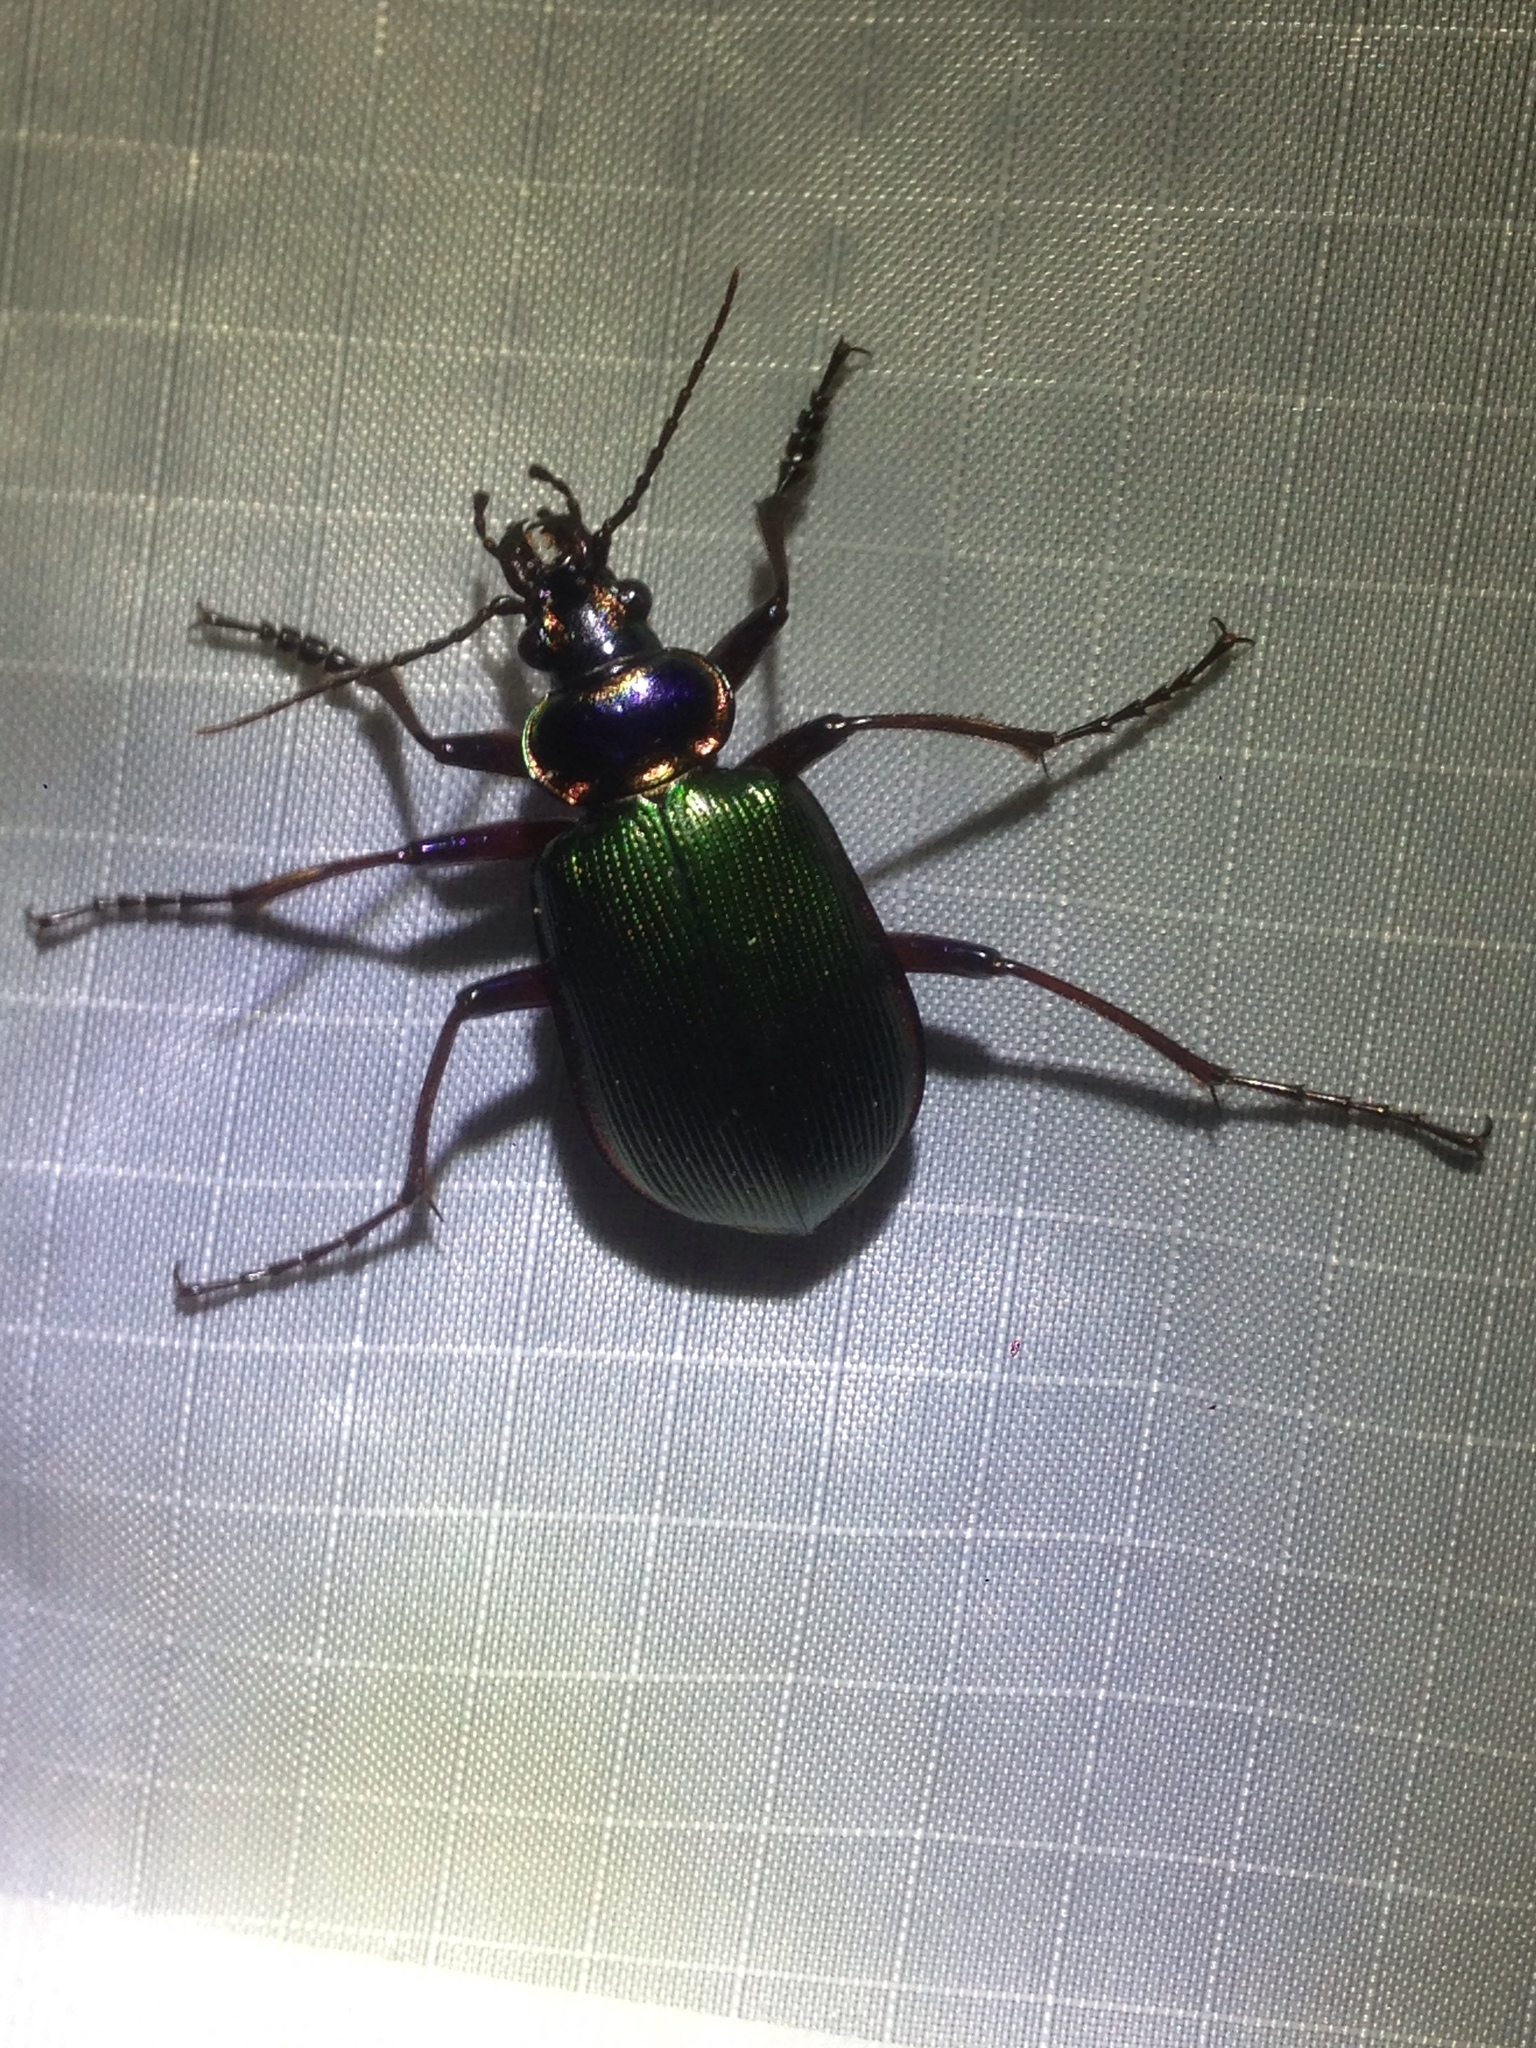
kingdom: Animalia
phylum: Arthropoda
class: Insecta
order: Coleoptera
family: Carabidae
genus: Calosoma
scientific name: Calosoma scrutator
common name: Fiery searcher beetle
